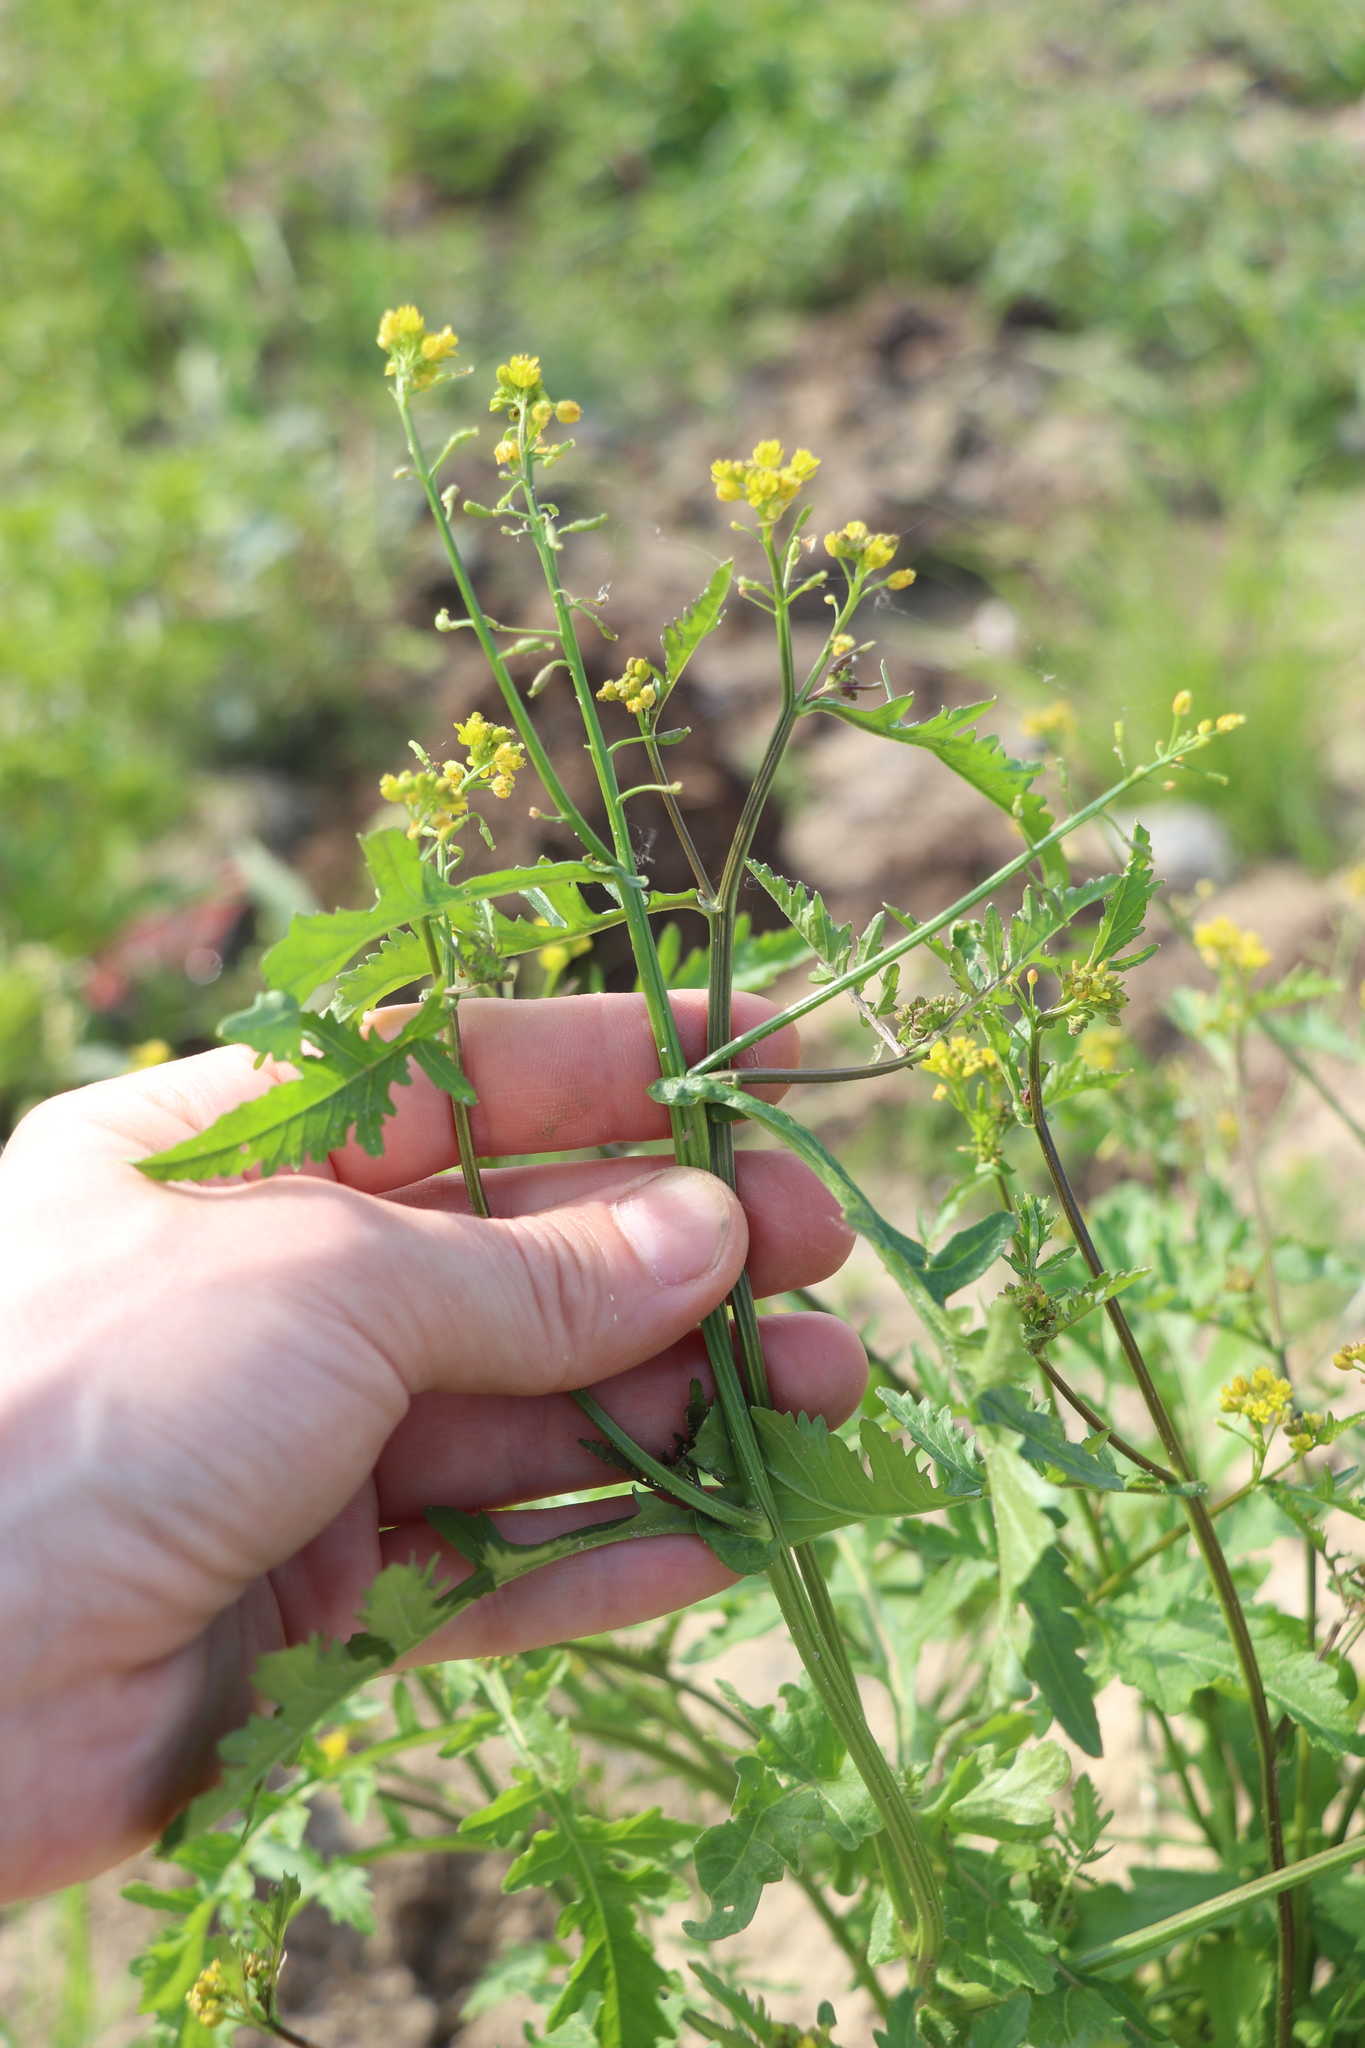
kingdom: Plantae
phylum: Tracheophyta
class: Magnoliopsida
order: Brassicales
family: Brassicaceae
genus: Rorippa
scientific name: Rorippa palustris
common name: Marsh yellow-cress
